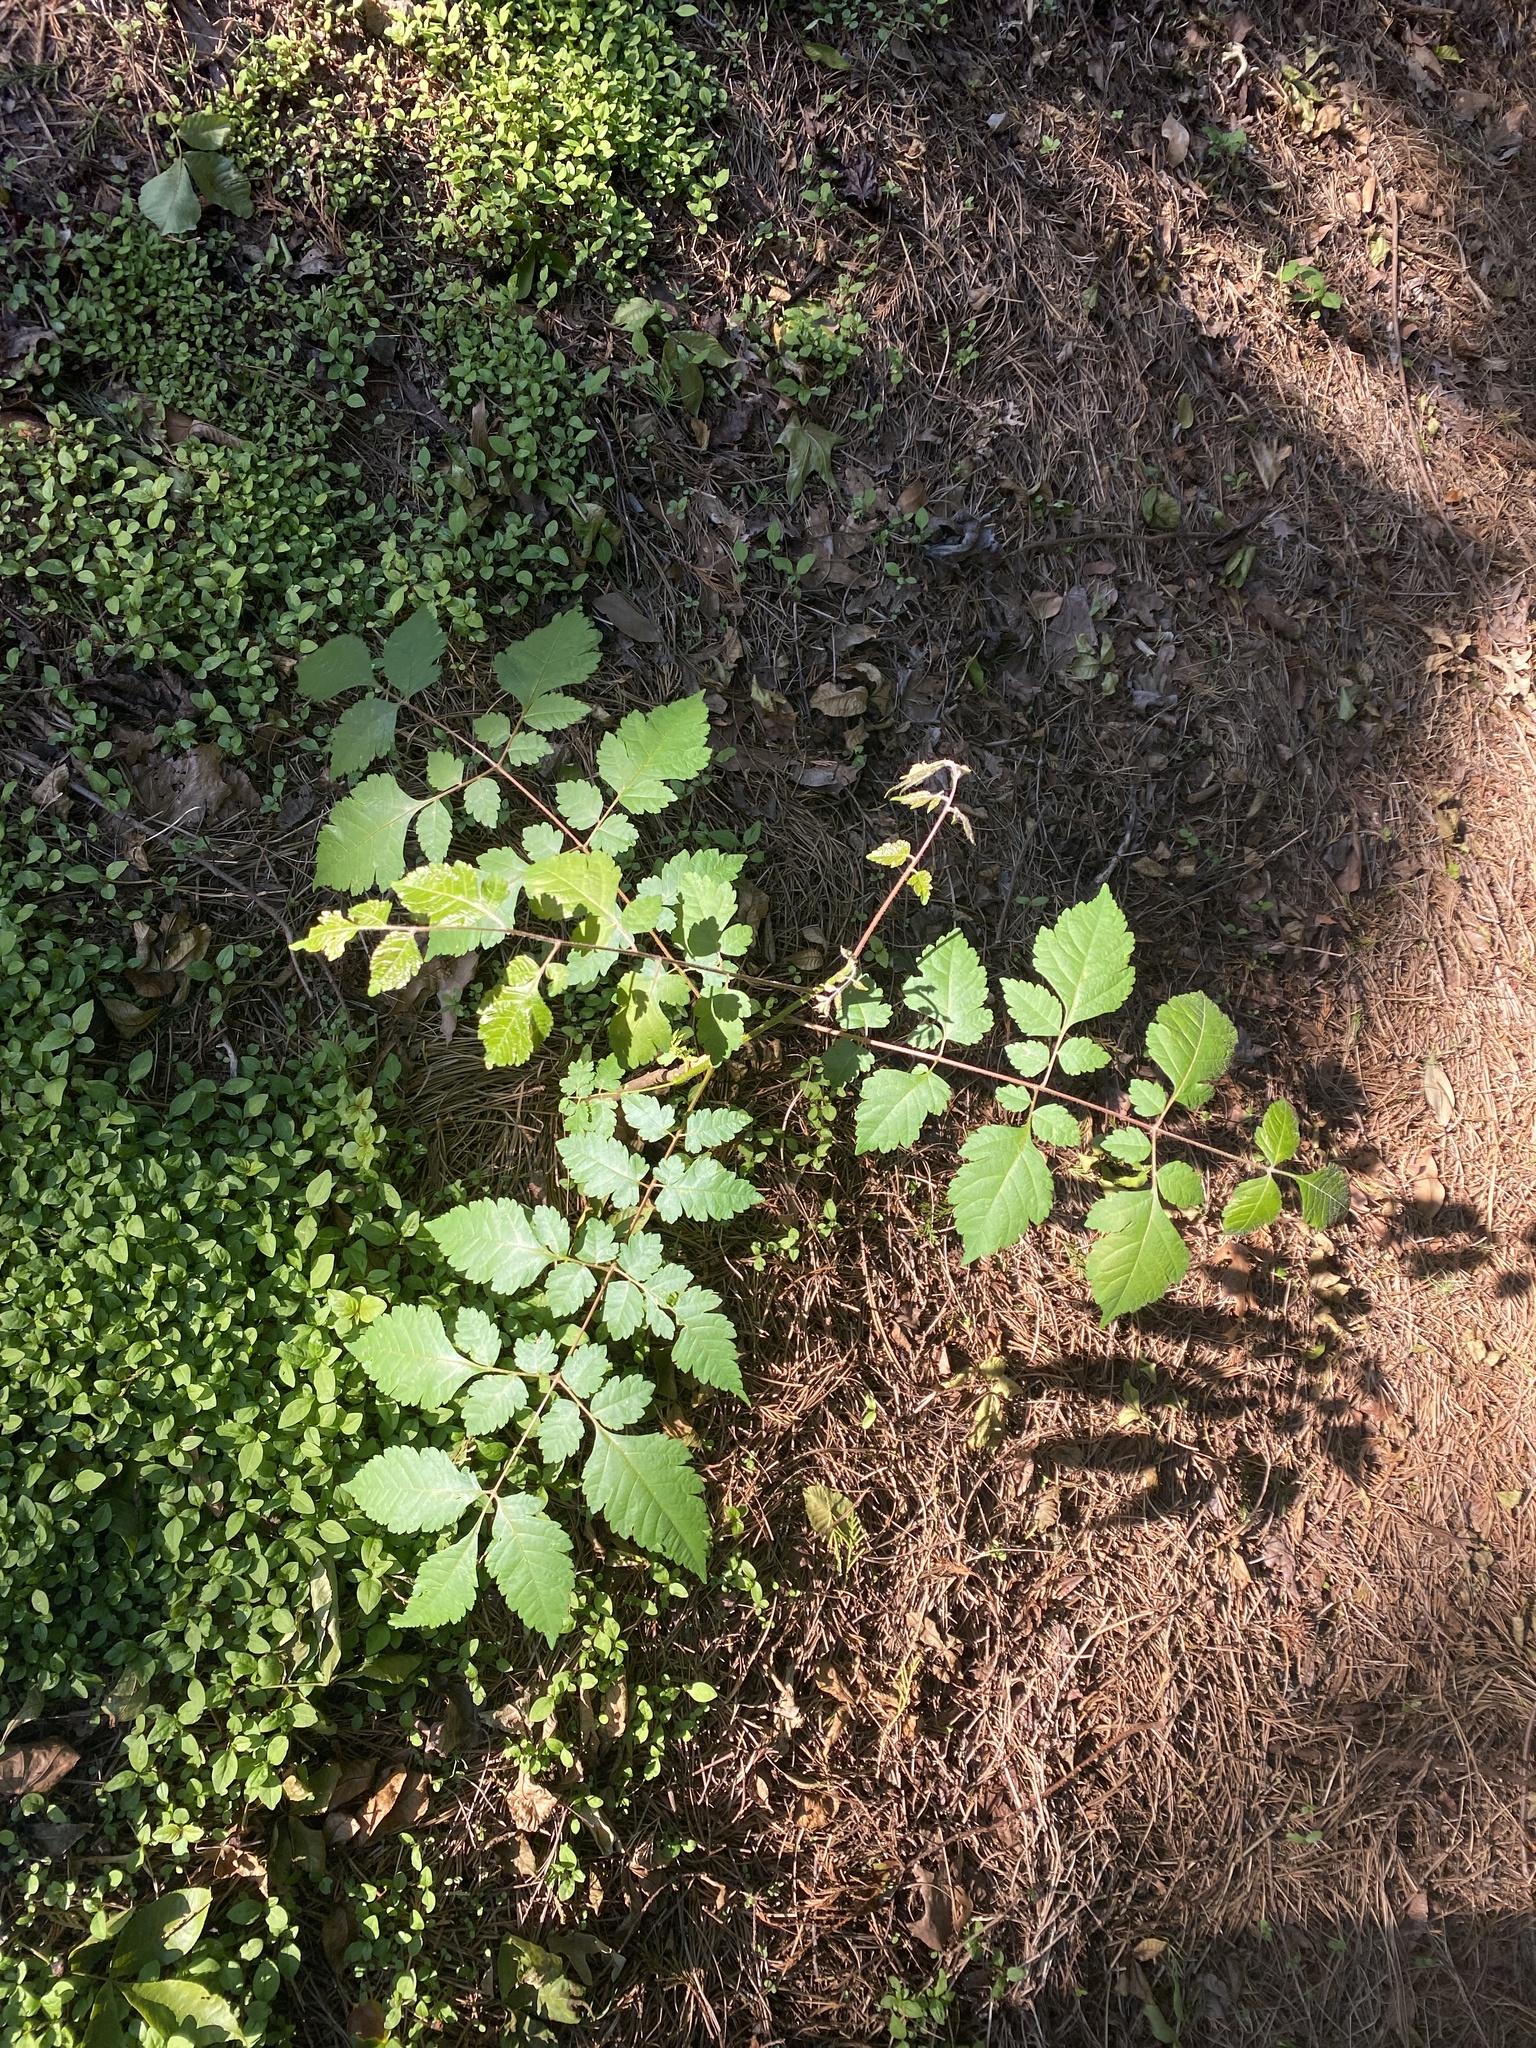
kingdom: Plantae
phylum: Tracheophyta
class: Magnoliopsida
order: Sapindales
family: Sapindaceae
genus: Koelreuteria
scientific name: Koelreuteria paniculata
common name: Pride-of-india
